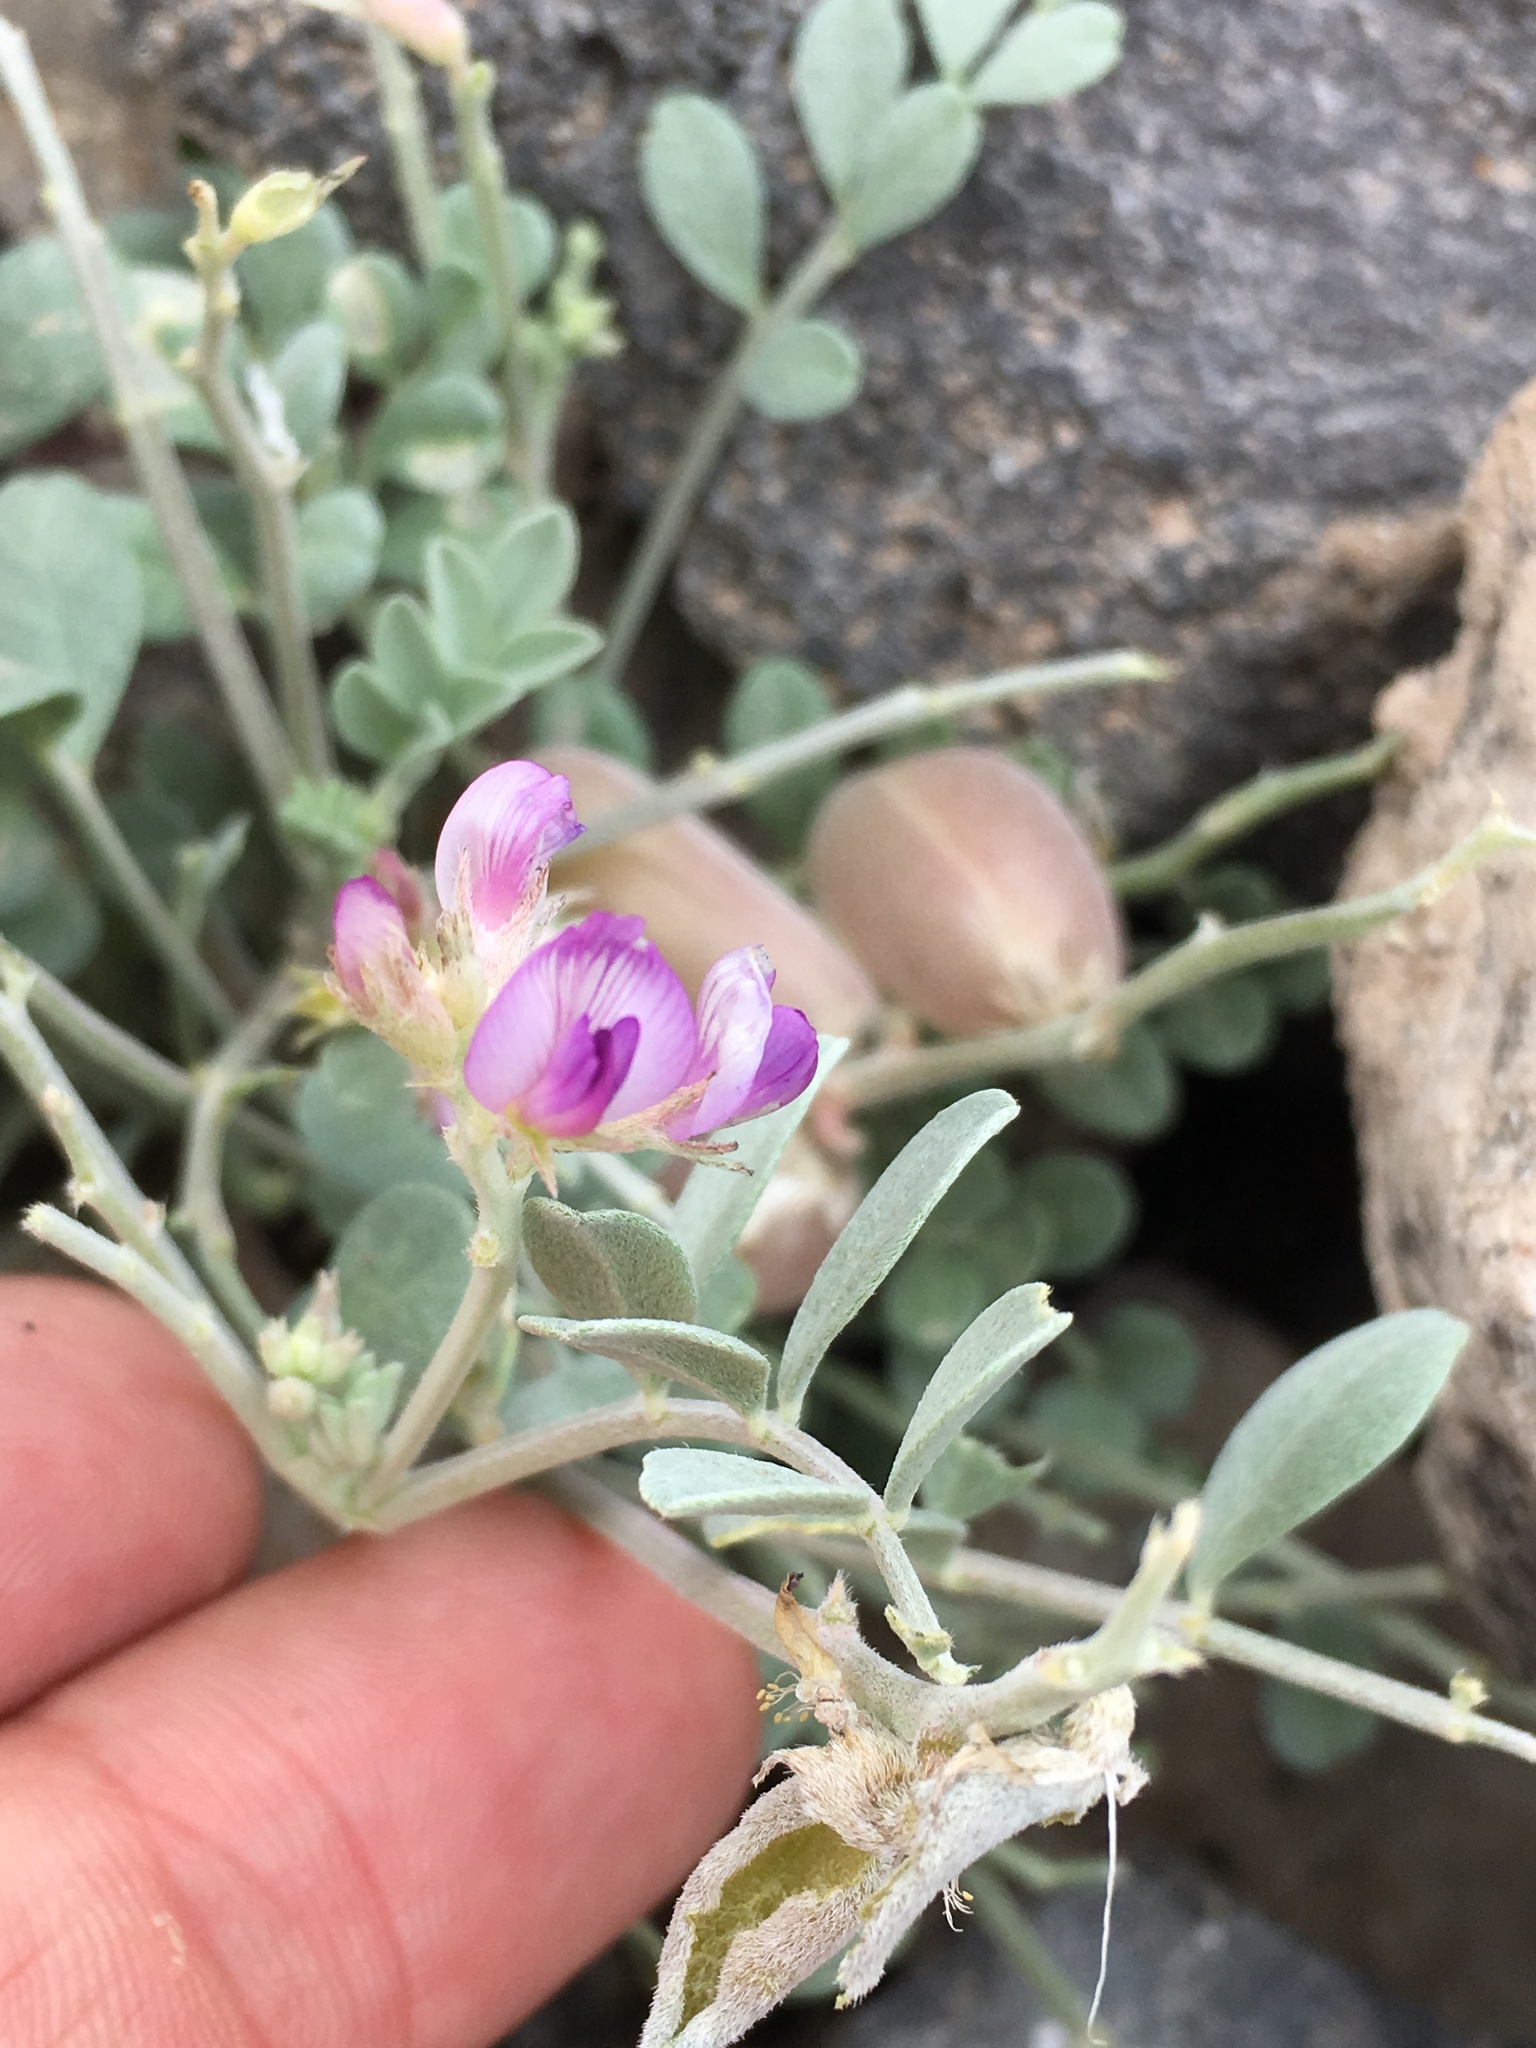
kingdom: Plantae
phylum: Tracheophyta
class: Magnoliopsida
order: Fabales
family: Fabaceae
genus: Astragalus
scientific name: Astragalus mohavensis
